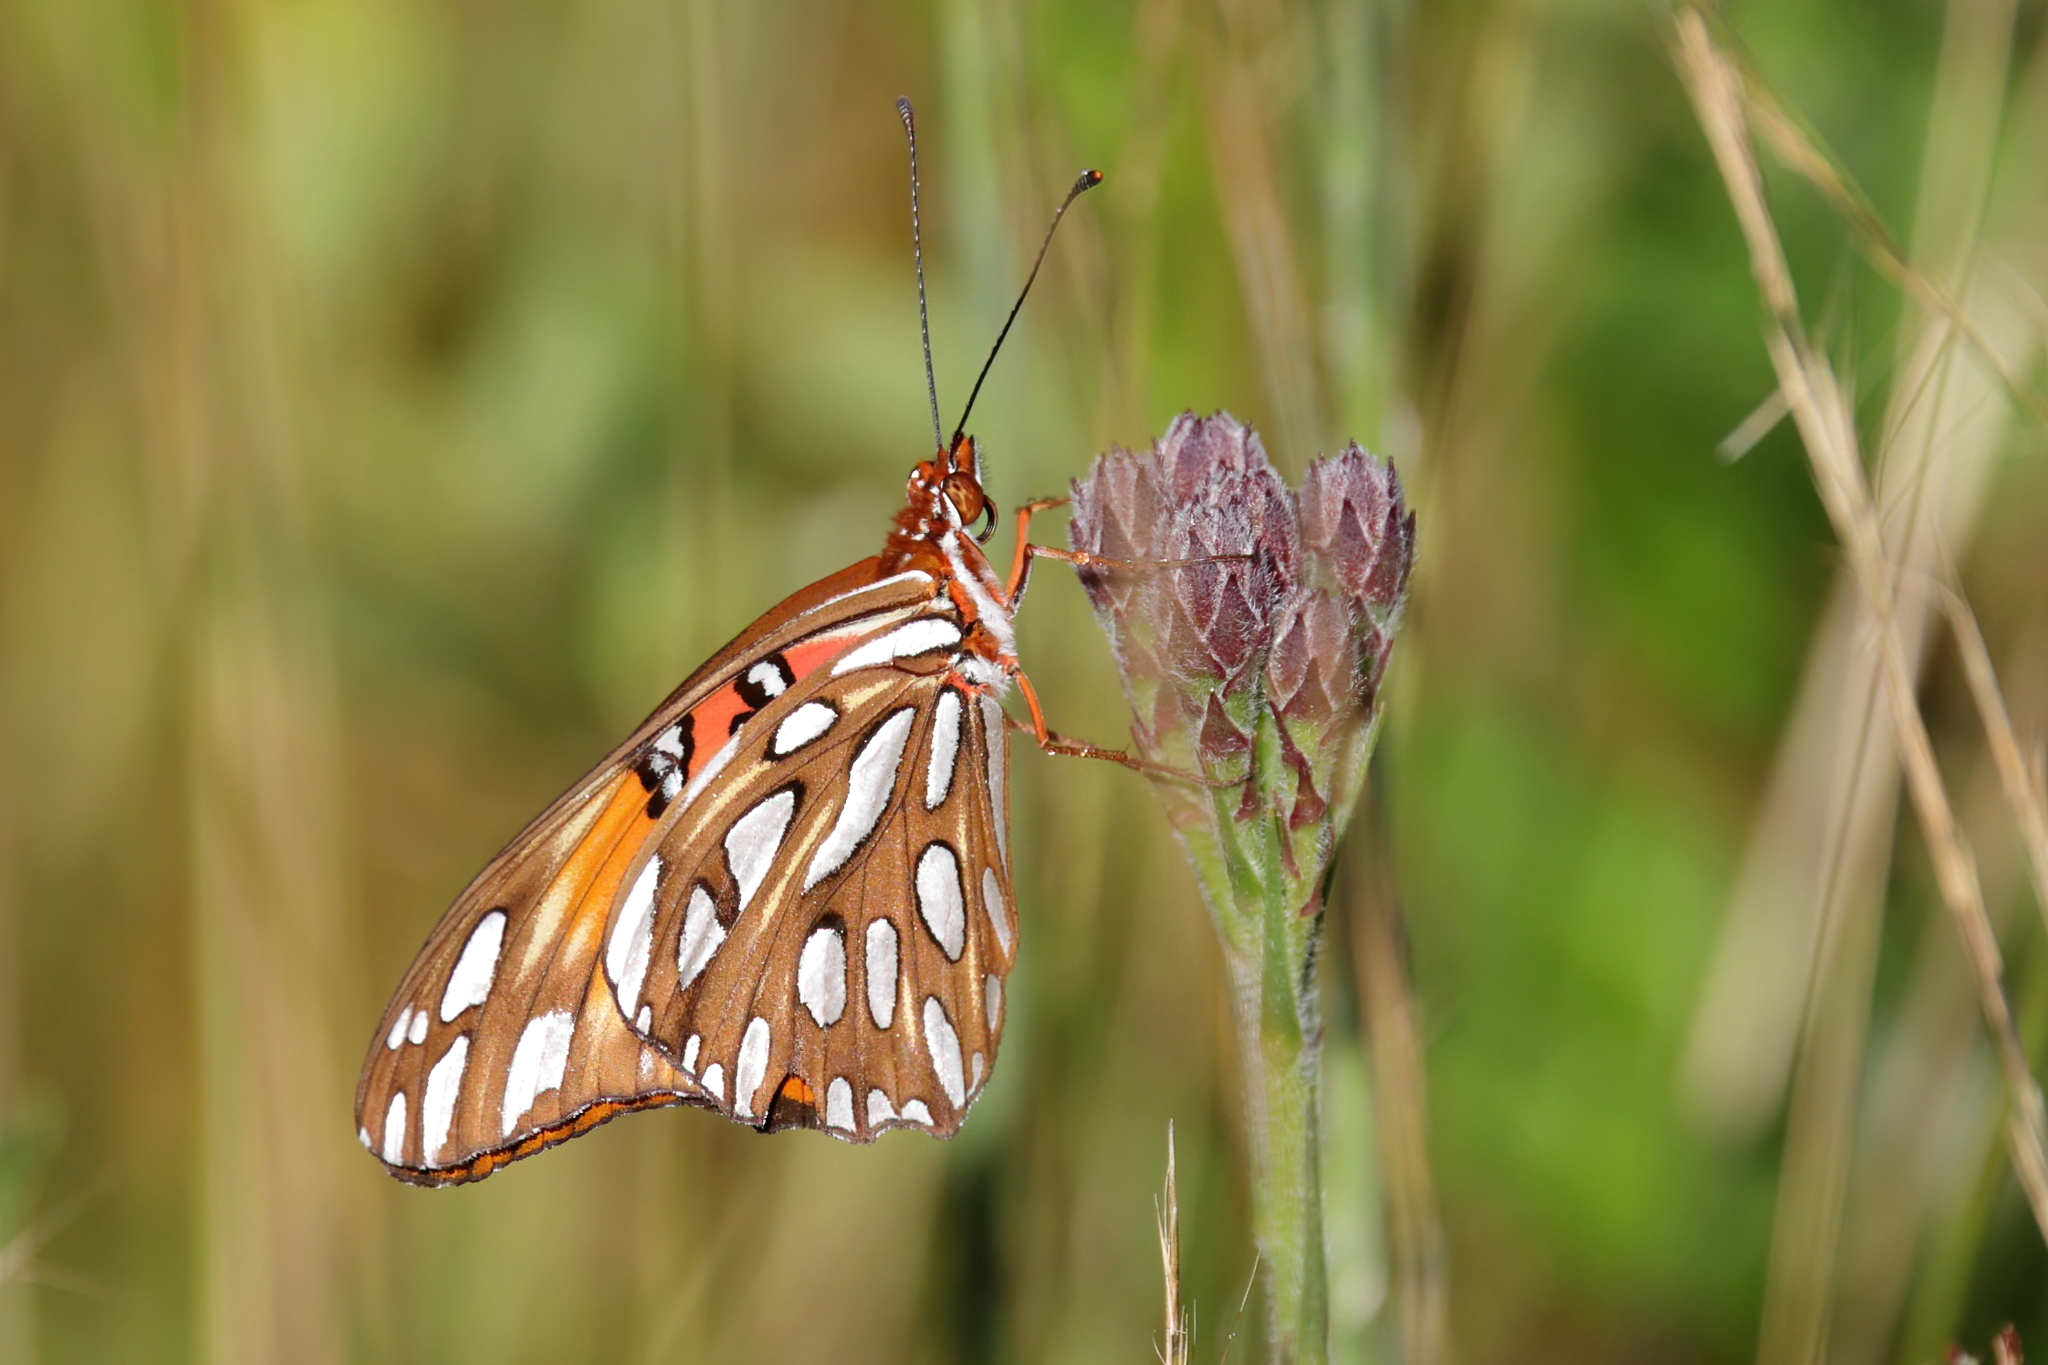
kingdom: Animalia
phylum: Arthropoda
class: Insecta
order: Lepidoptera
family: Nymphalidae
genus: Dione
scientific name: Dione vanillae
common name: Gulf fritillary
